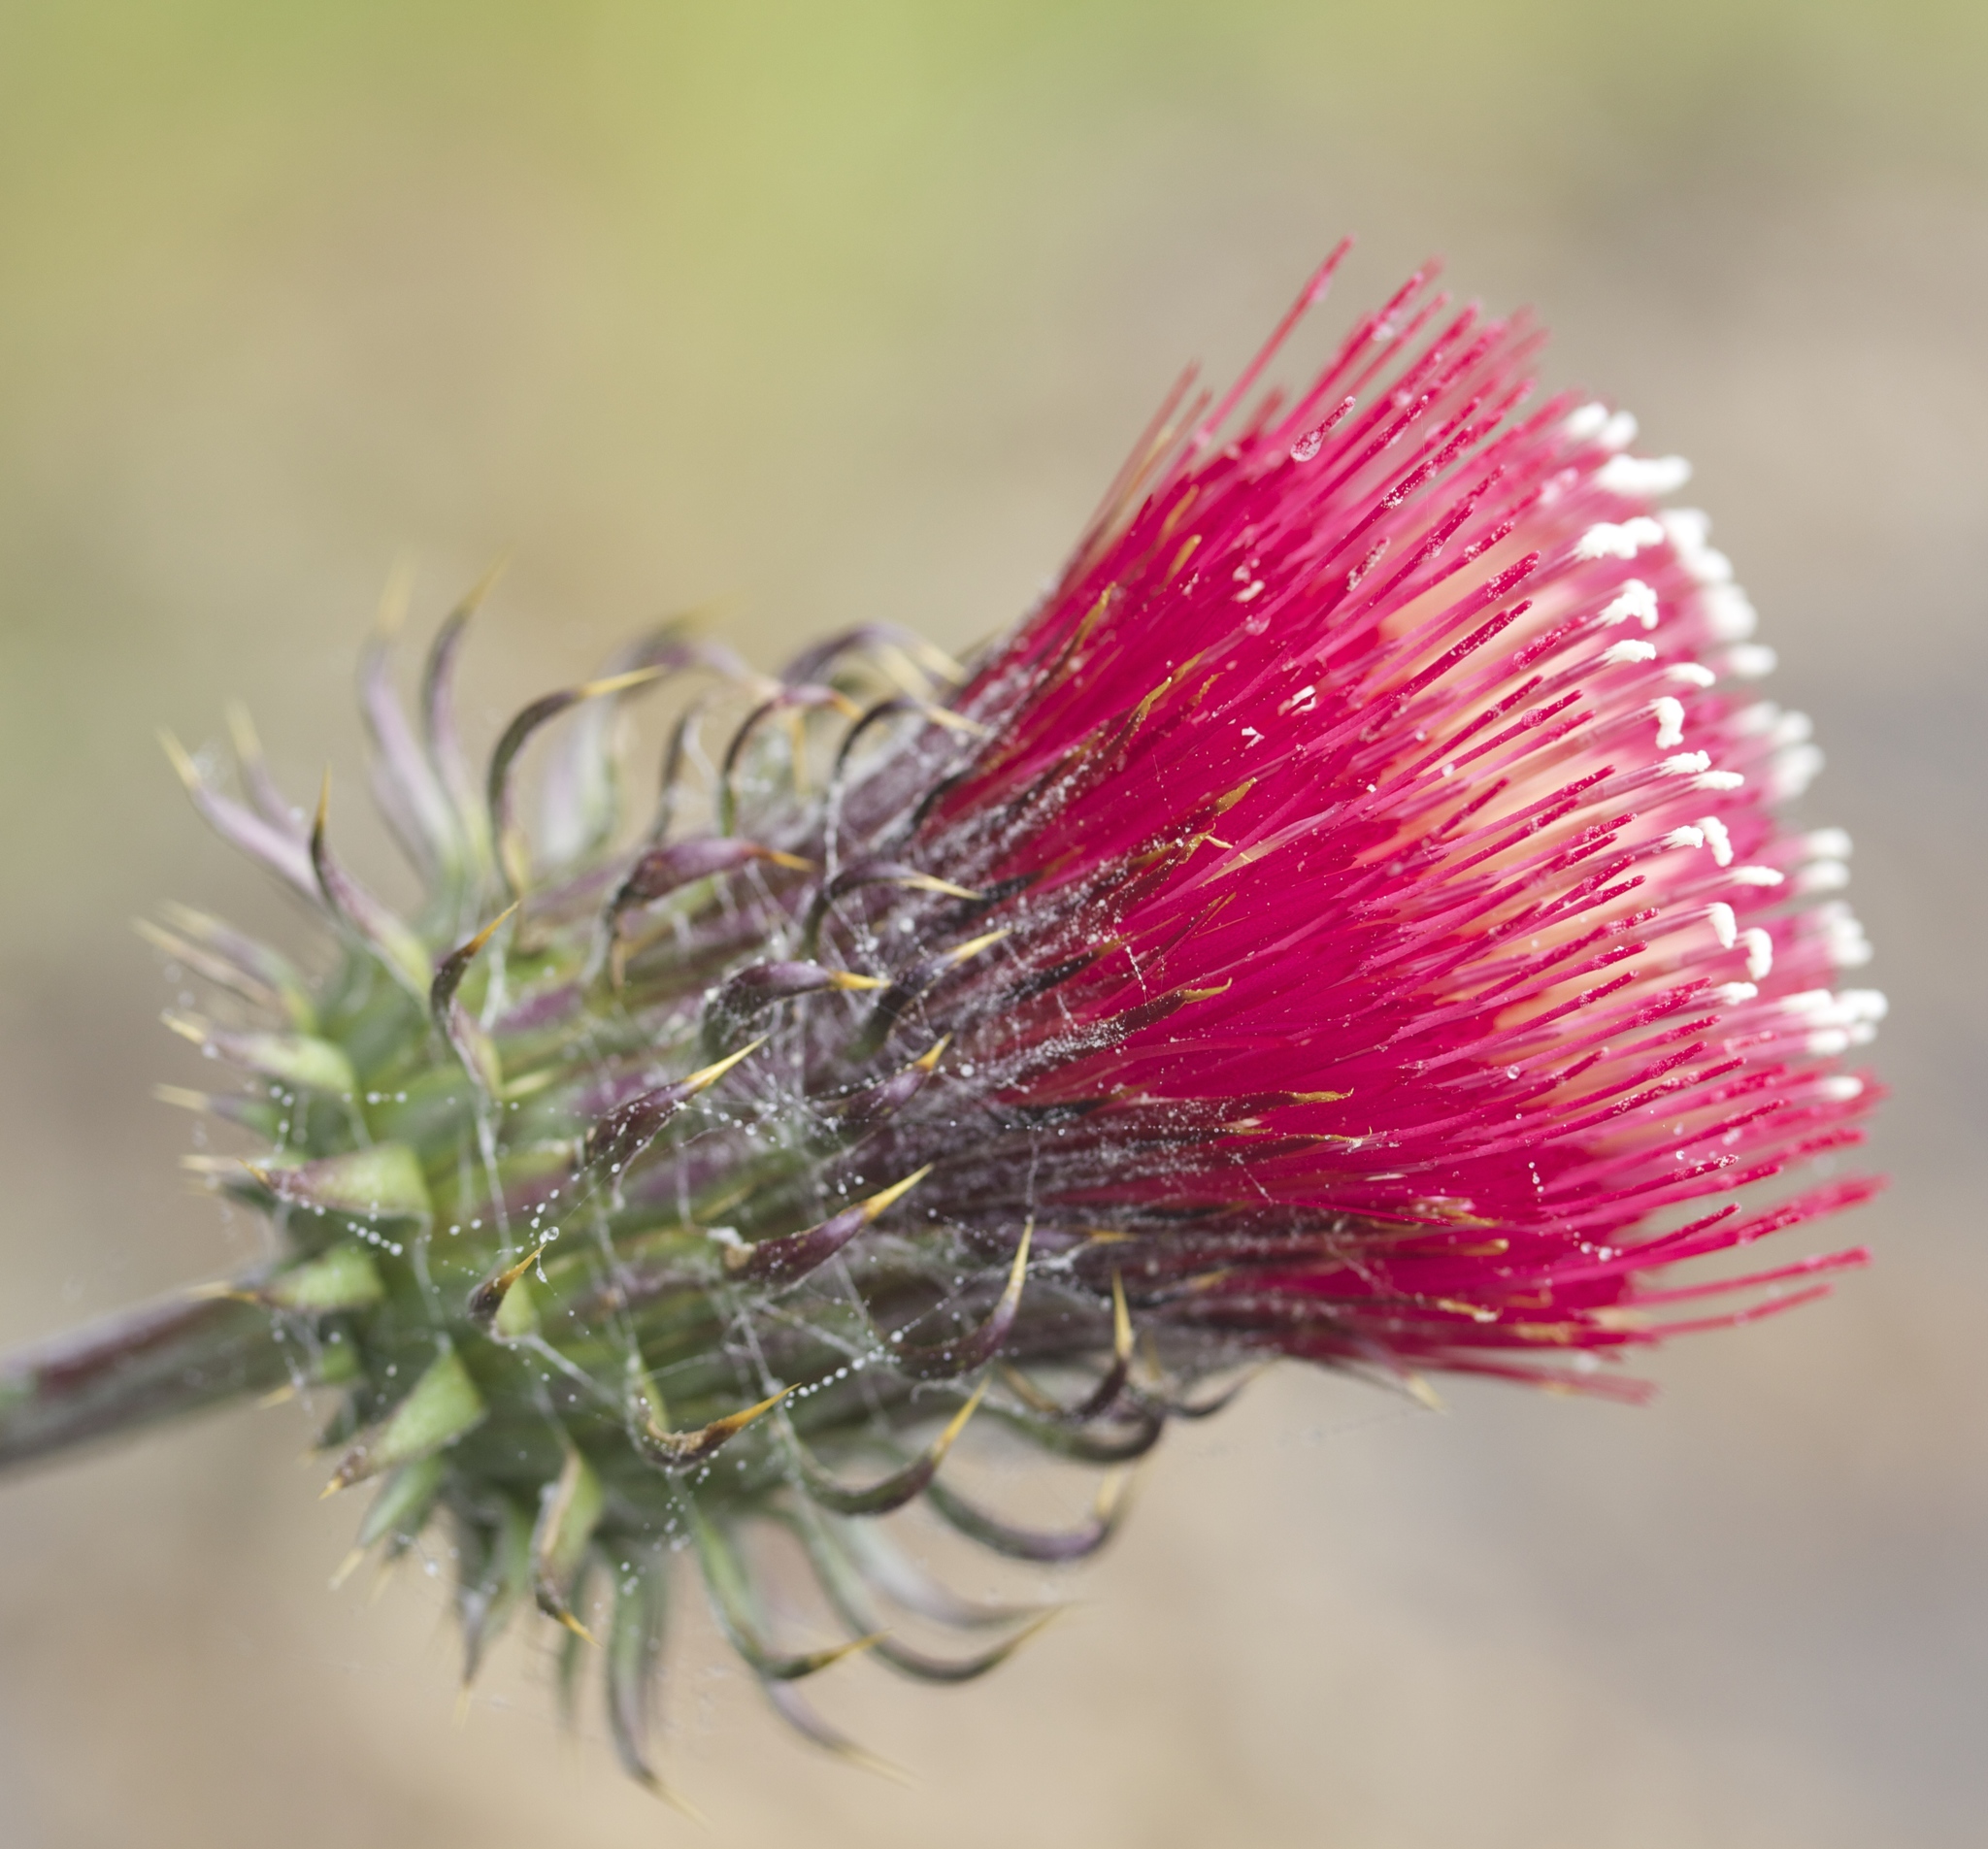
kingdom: Plantae
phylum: Tracheophyta
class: Magnoliopsida
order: Asterales
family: Asteraceae
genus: Cirsium
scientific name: Cirsium occidentale
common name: Western thistle
